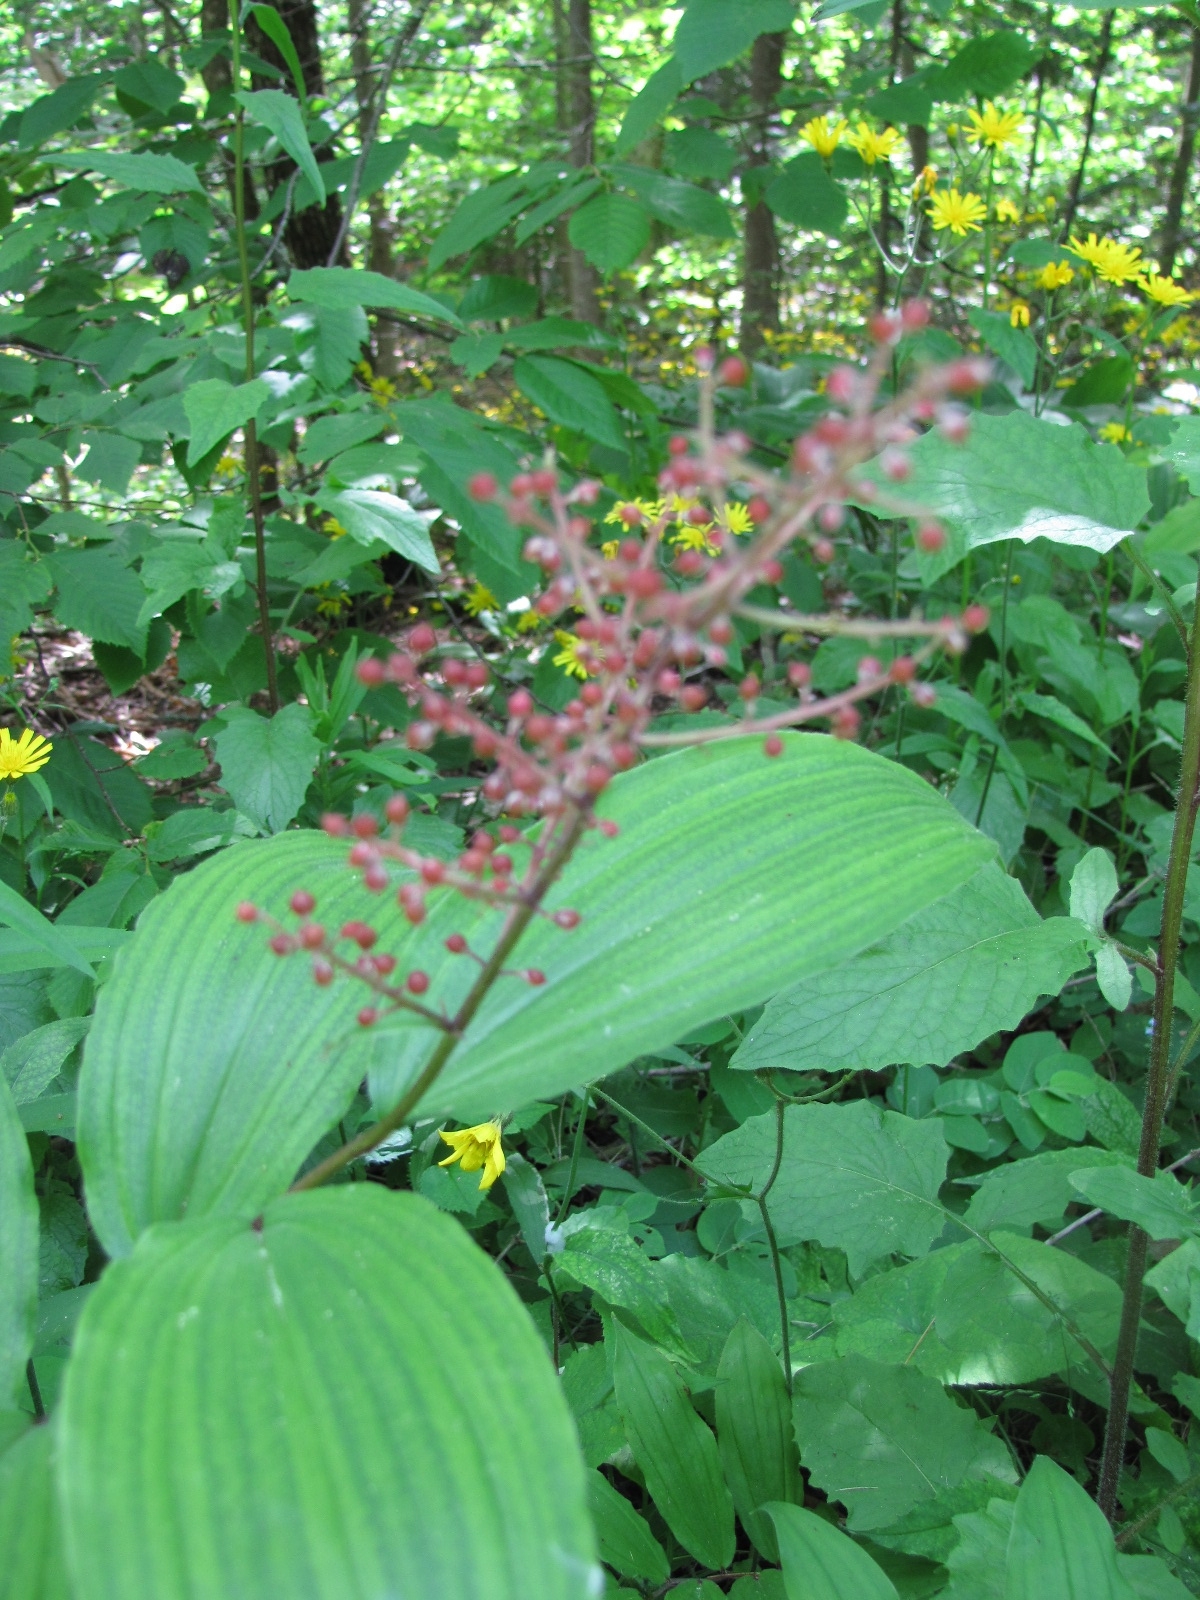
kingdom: Plantae
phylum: Tracheophyta
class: Liliopsida
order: Asparagales
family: Asparagaceae
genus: Maianthemum
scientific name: Maianthemum racemosum
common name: False spikenard
